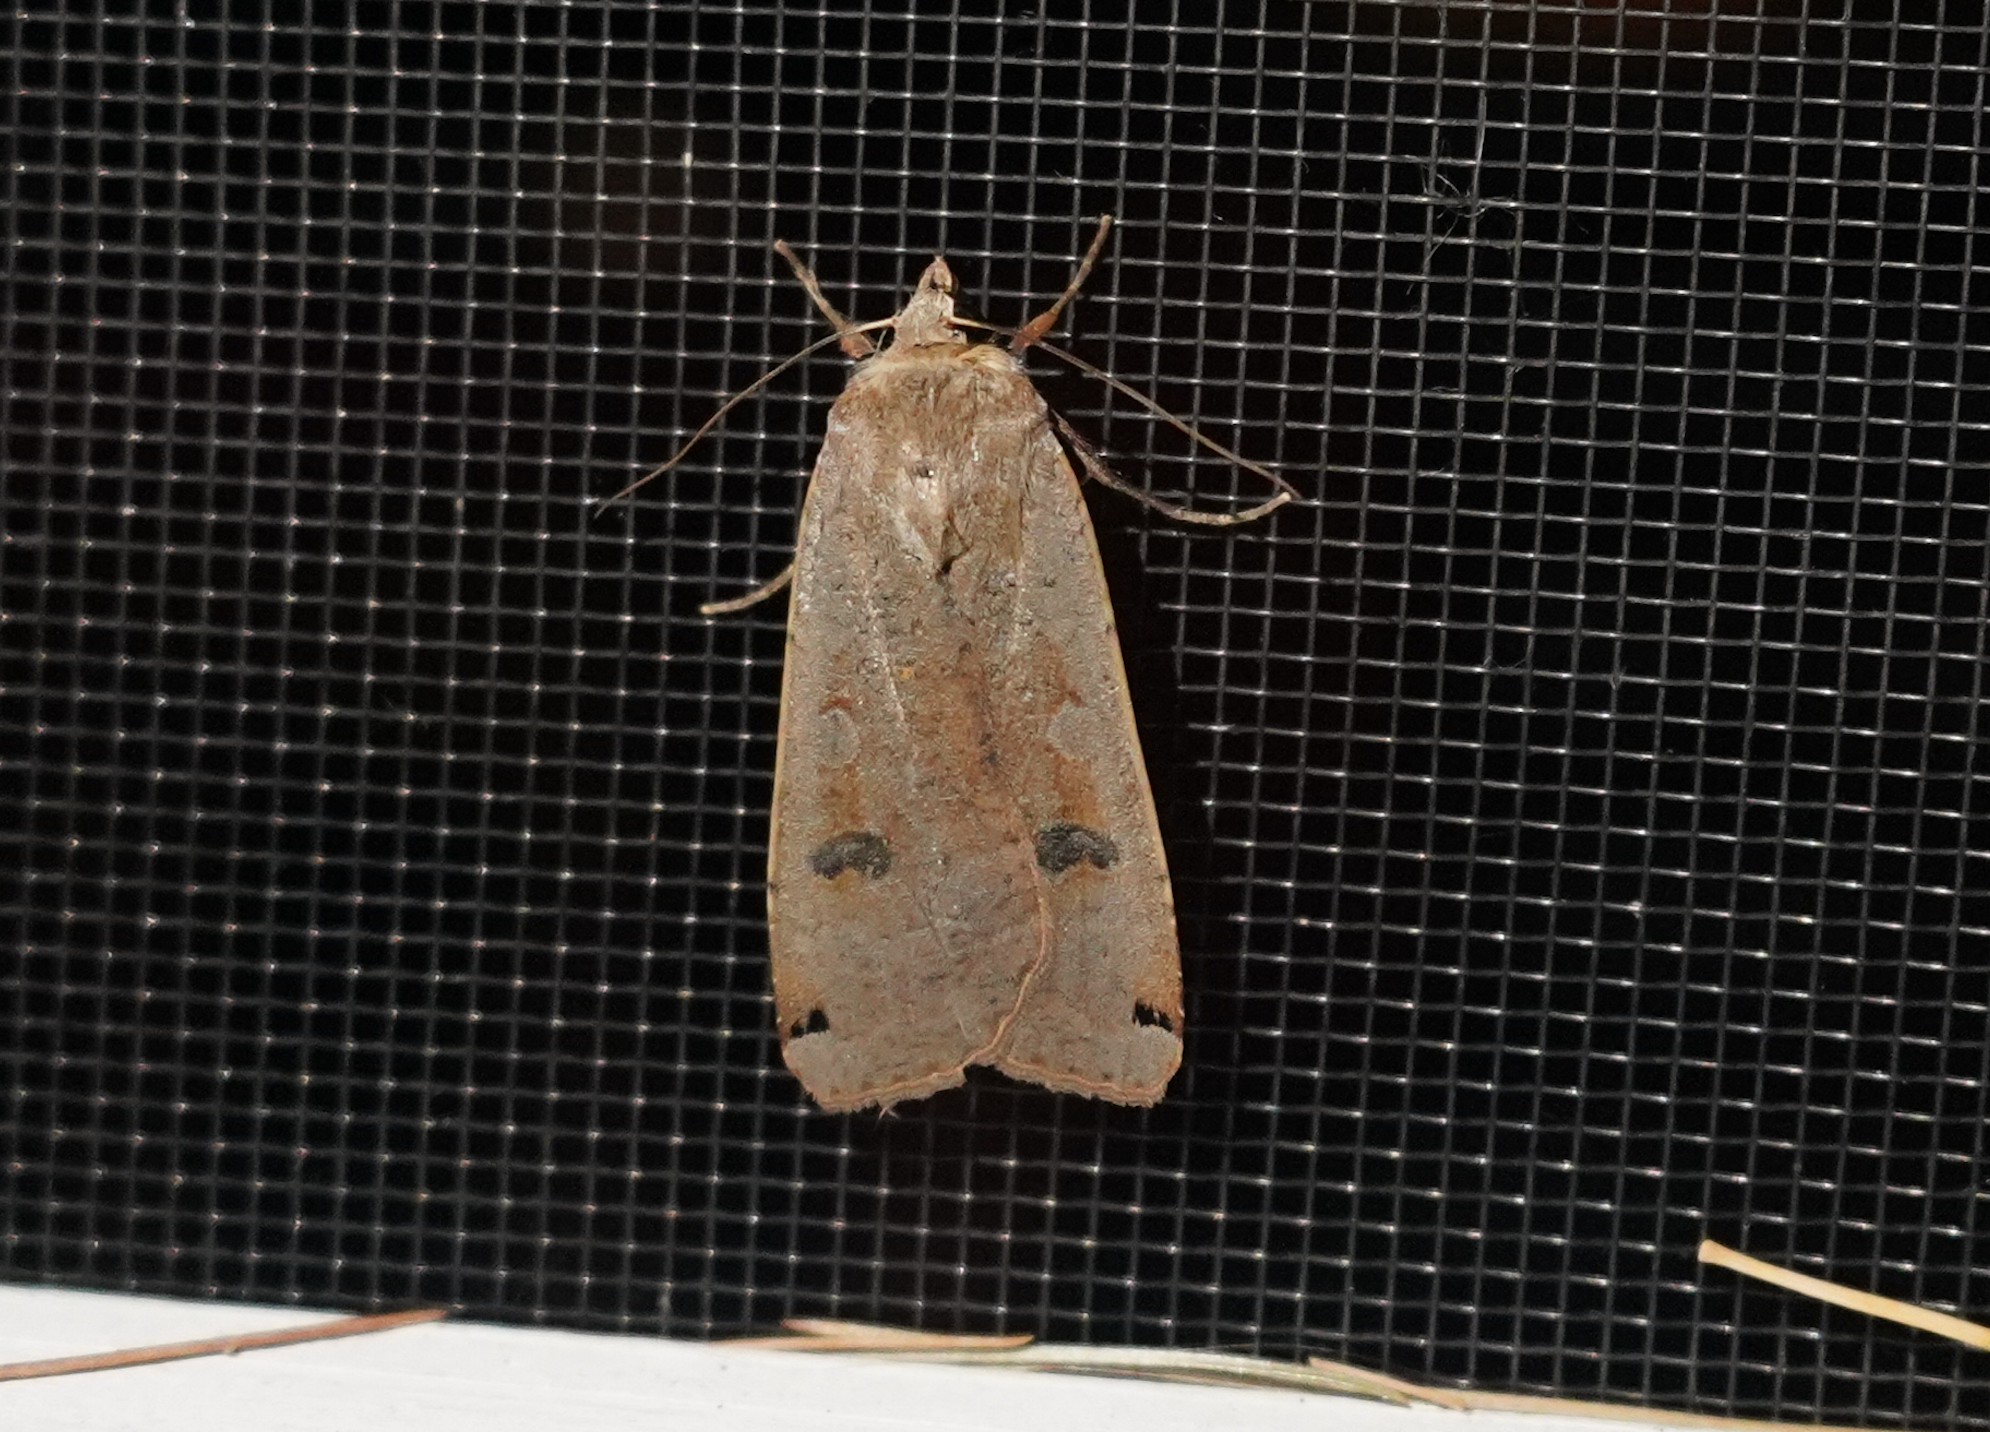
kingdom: Animalia
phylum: Arthropoda
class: Insecta
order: Lepidoptera
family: Noctuidae
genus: Noctua
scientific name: Noctua pronuba
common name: Large yellow underwing
